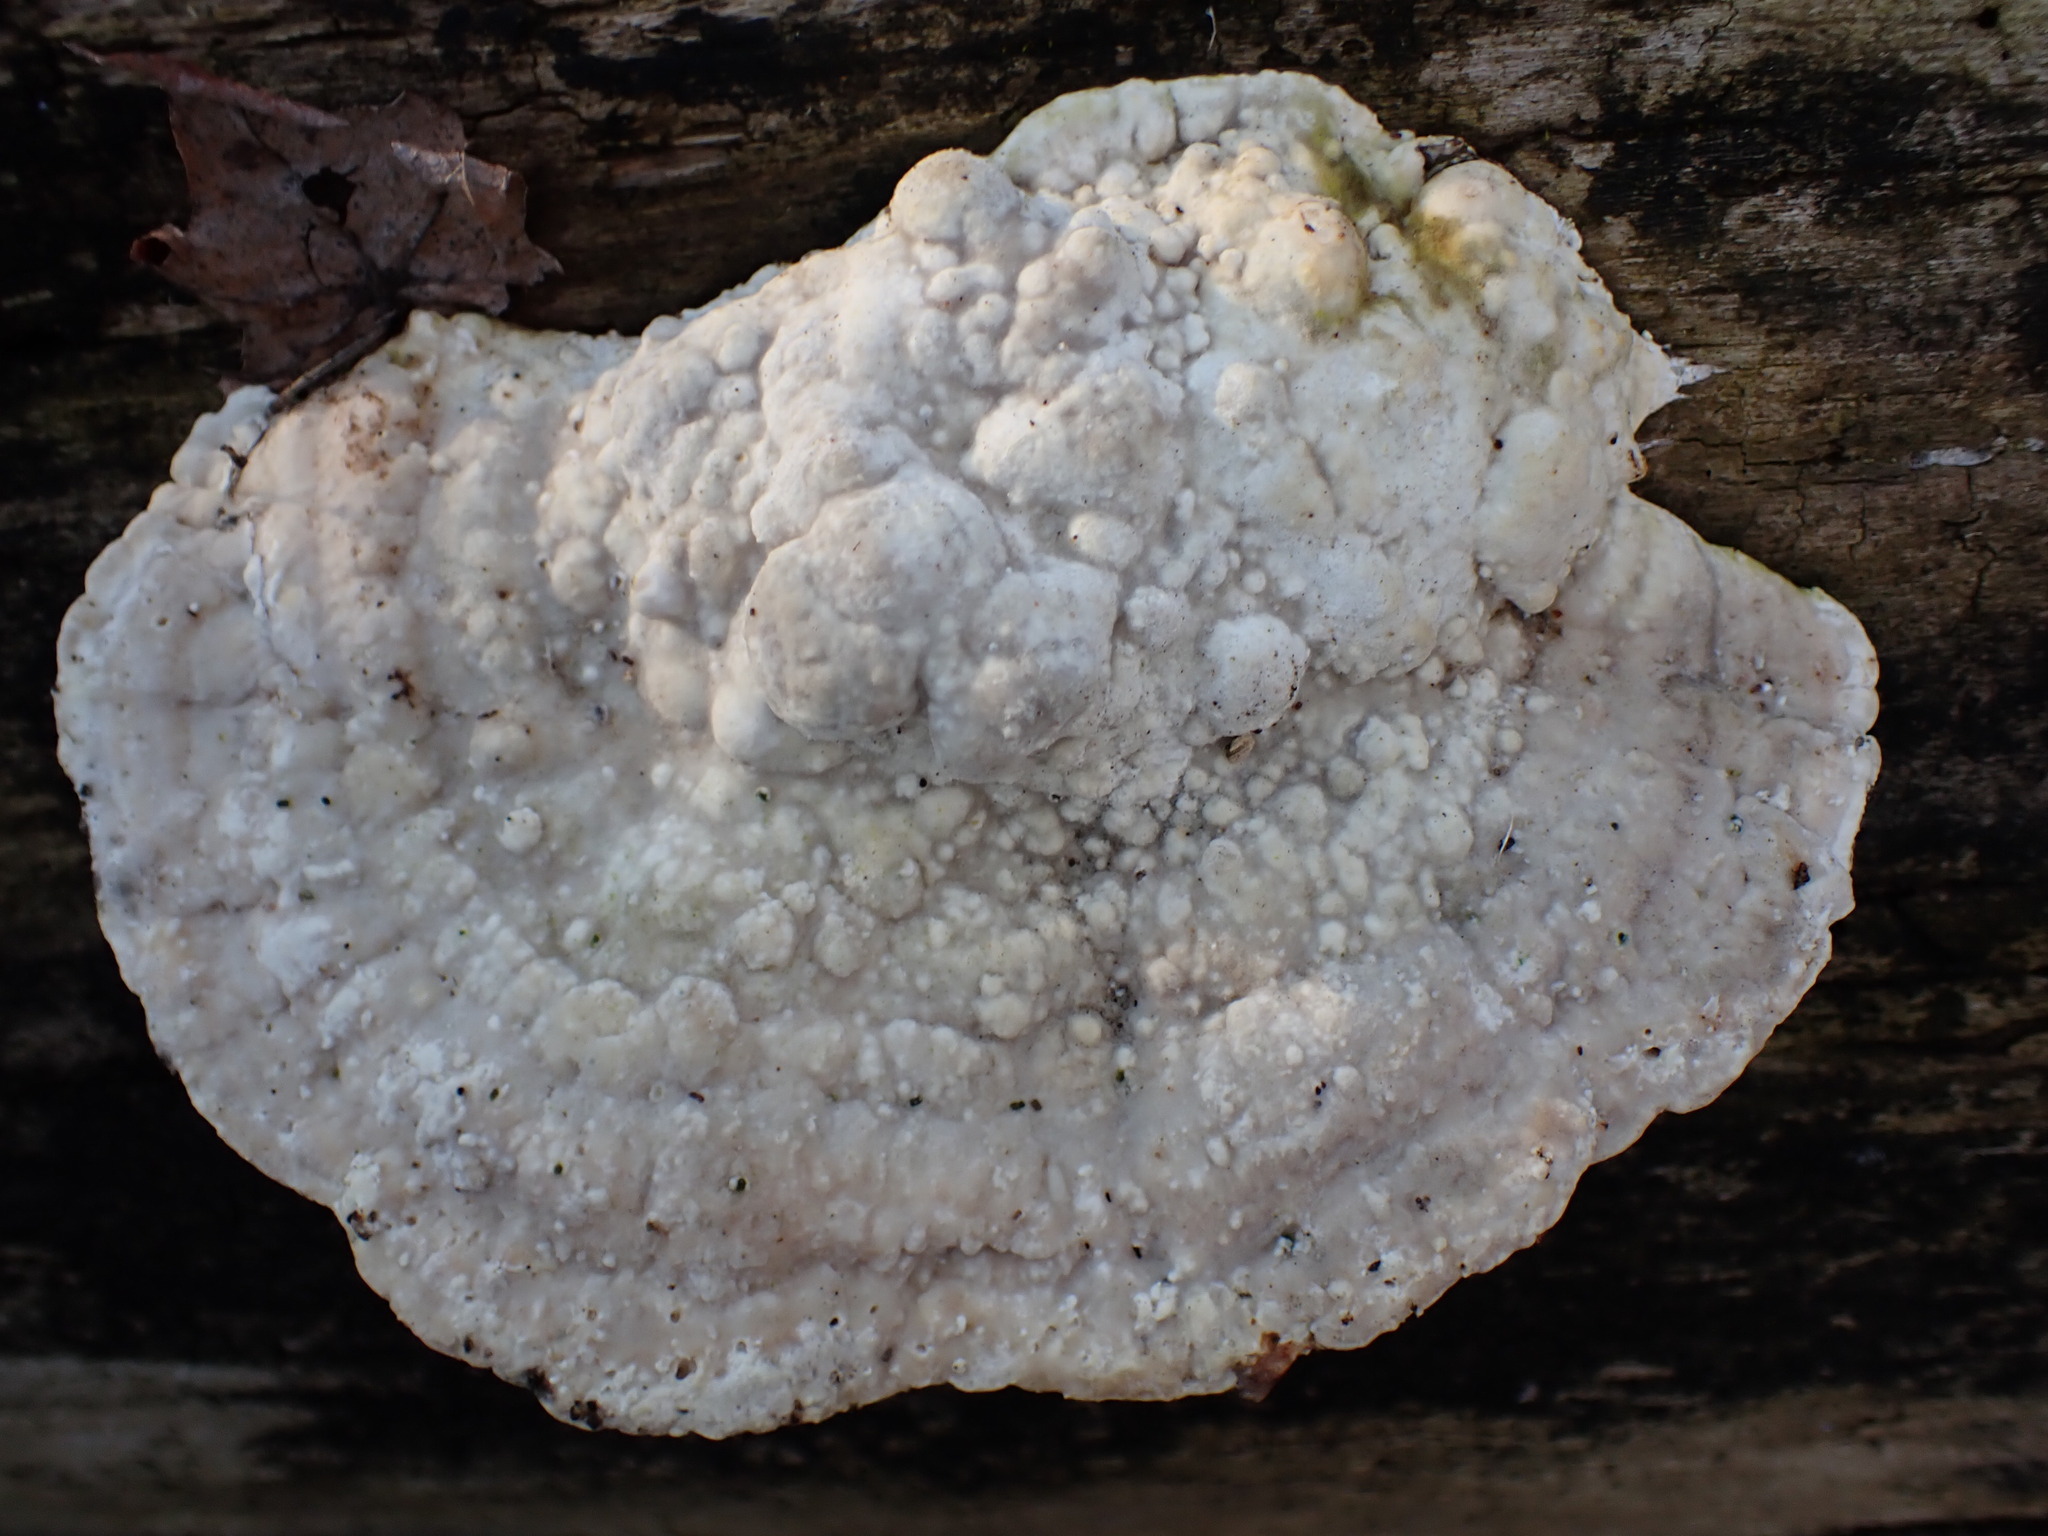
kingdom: Fungi
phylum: Basidiomycota
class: Agaricomycetes
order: Polyporales
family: Polyporaceae
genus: Trametes
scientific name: Trametes gibbosa
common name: Lumpy bracket
